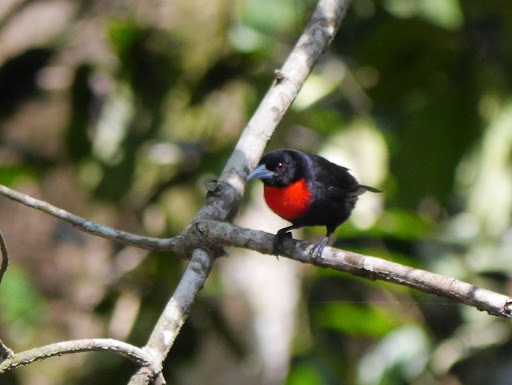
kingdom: Animalia
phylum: Chordata
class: Aves
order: Passeriformes
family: Ploceidae
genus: Malimbus
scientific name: Malimbus nitens
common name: Blue-billed malimbe
